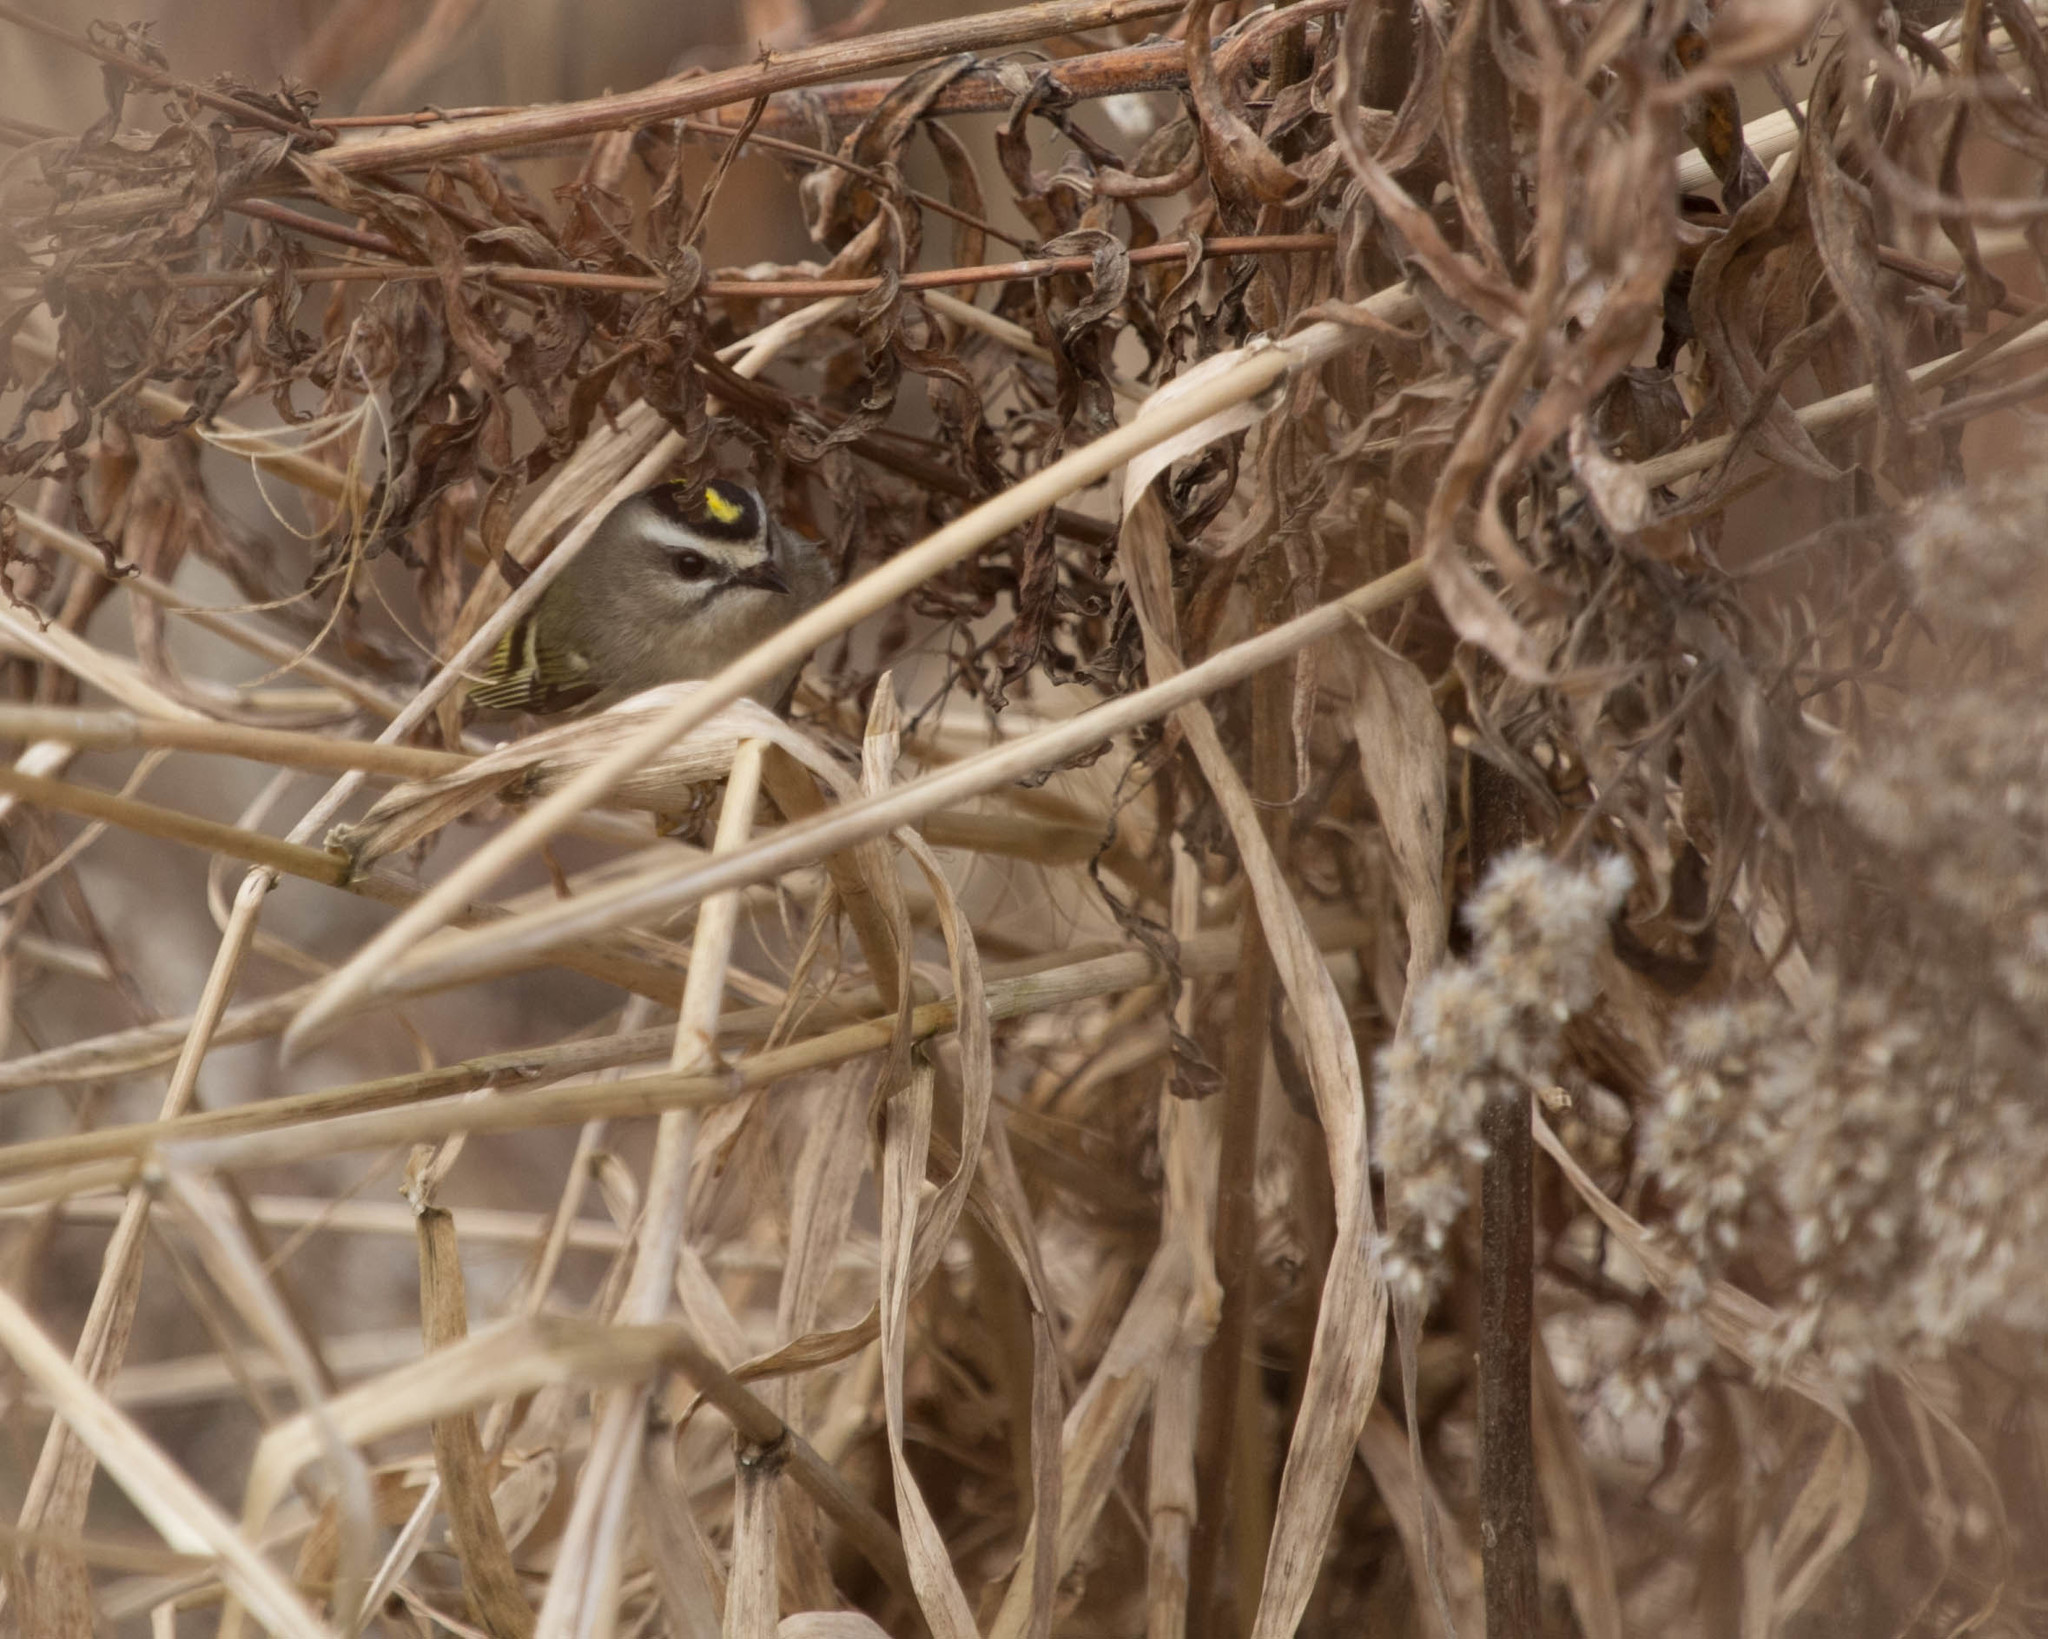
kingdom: Animalia
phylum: Chordata
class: Aves
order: Passeriformes
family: Regulidae
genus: Regulus
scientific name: Regulus satrapa
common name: Golden-crowned kinglet
